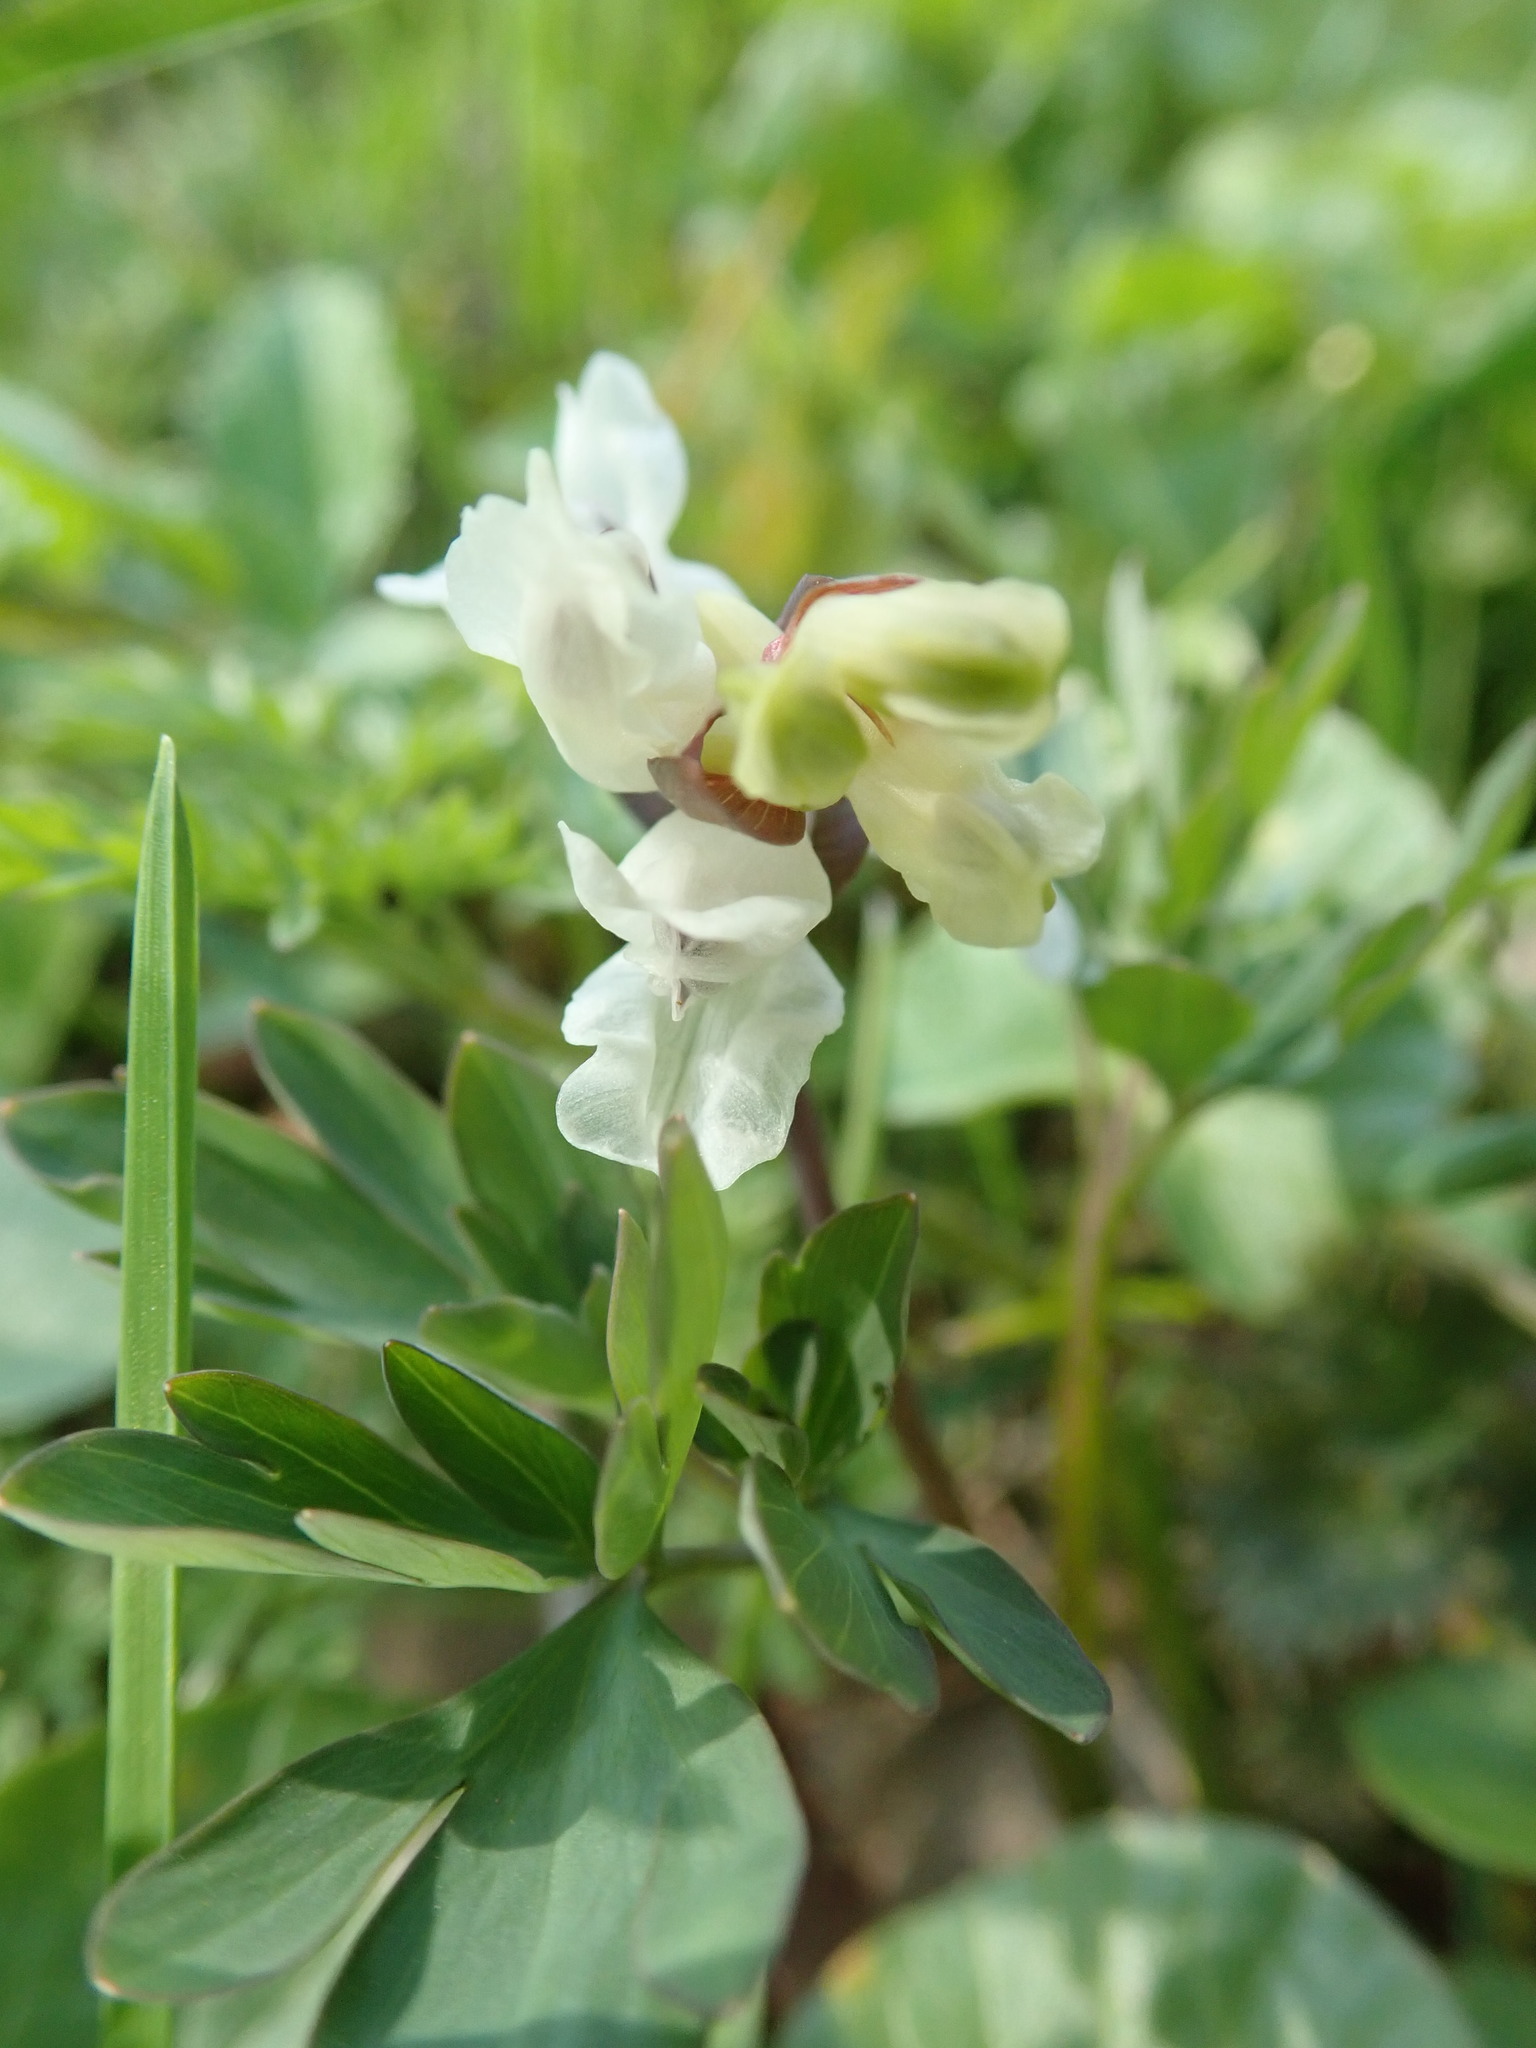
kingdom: Plantae
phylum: Tracheophyta
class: Magnoliopsida
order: Ranunculales
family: Papaveraceae
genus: Corydalis
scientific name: Corydalis cava
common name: Hollowroot
